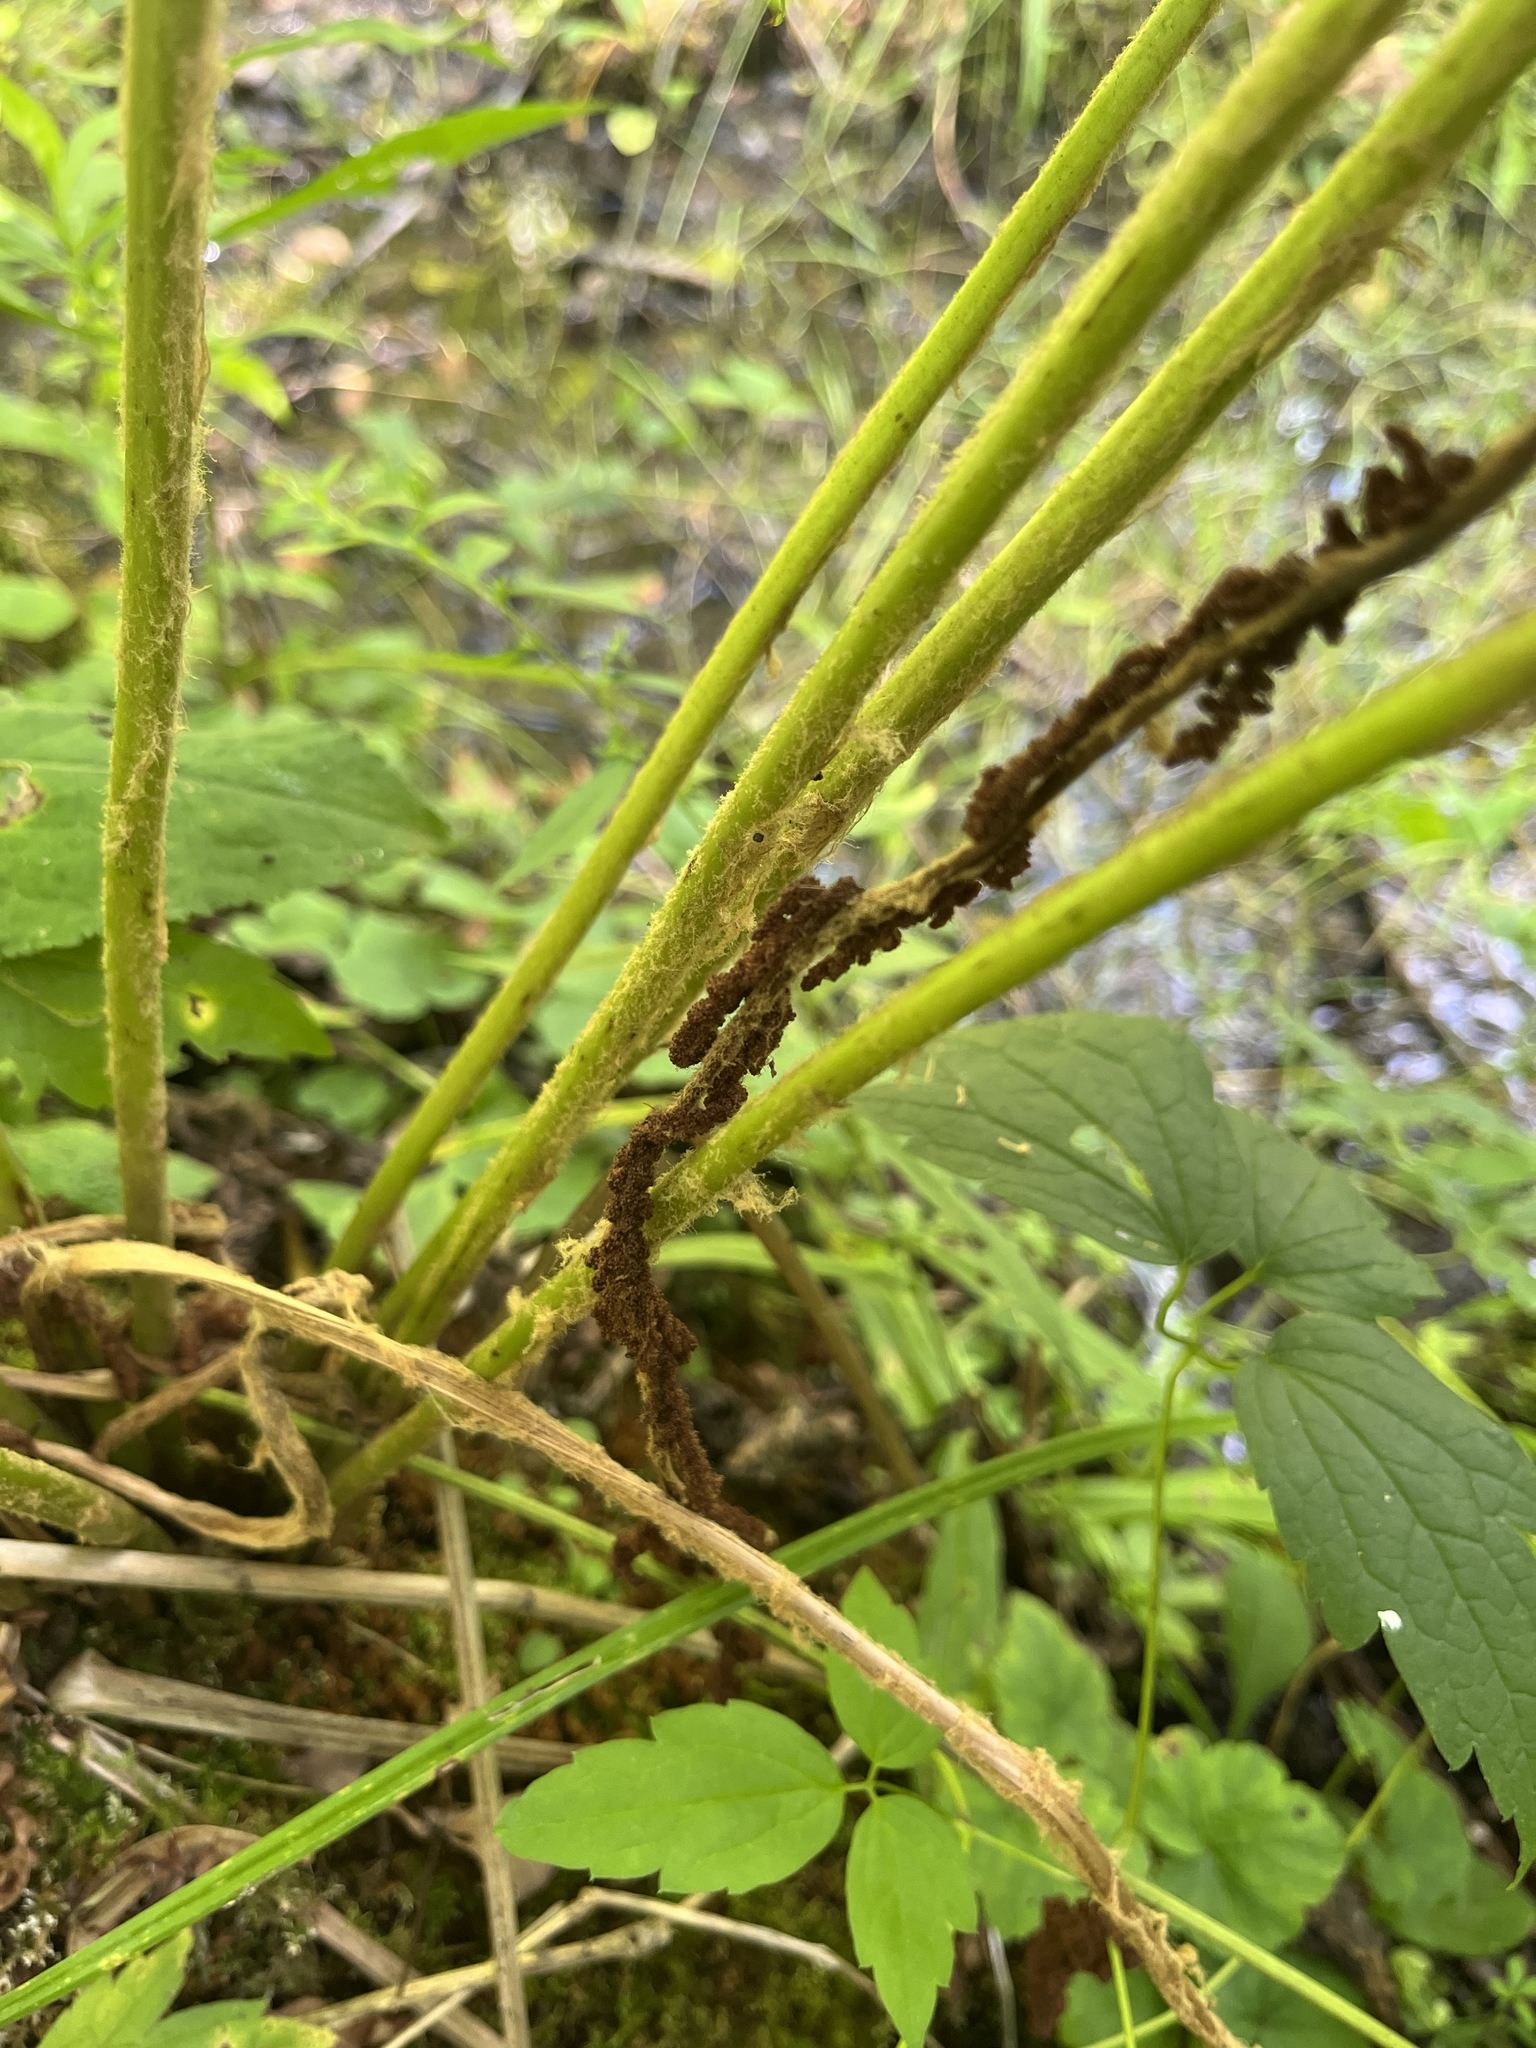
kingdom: Plantae
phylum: Tracheophyta
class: Polypodiopsida
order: Osmundales
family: Osmundaceae
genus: Osmundastrum
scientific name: Osmundastrum cinnamomeum
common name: Cinnamon fern
